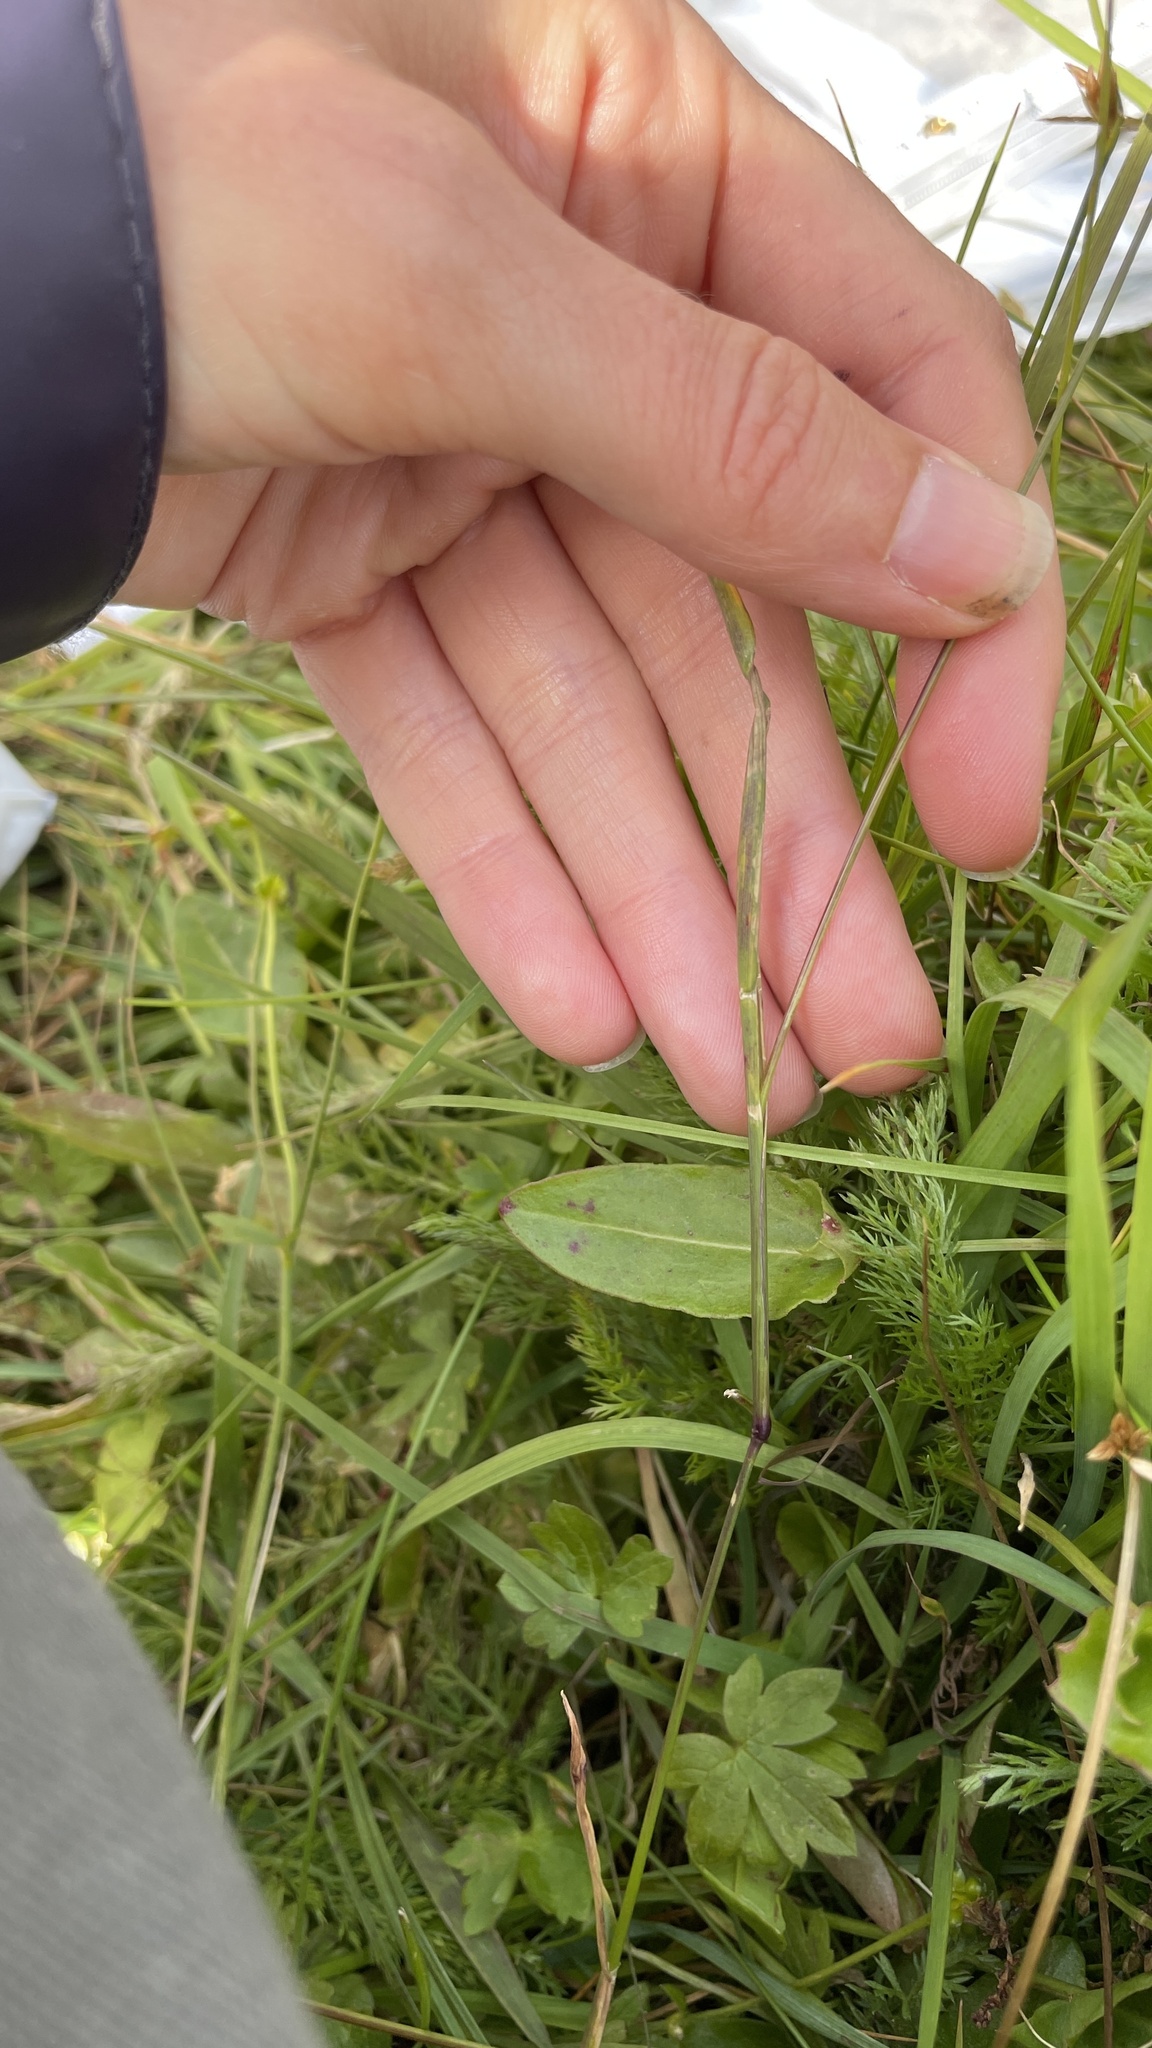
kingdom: Plantae
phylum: Tracheophyta
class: Liliopsida
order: Poales
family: Poaceae
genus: Phleum
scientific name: Phleum alpinum
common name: Alpine cat's-tail
